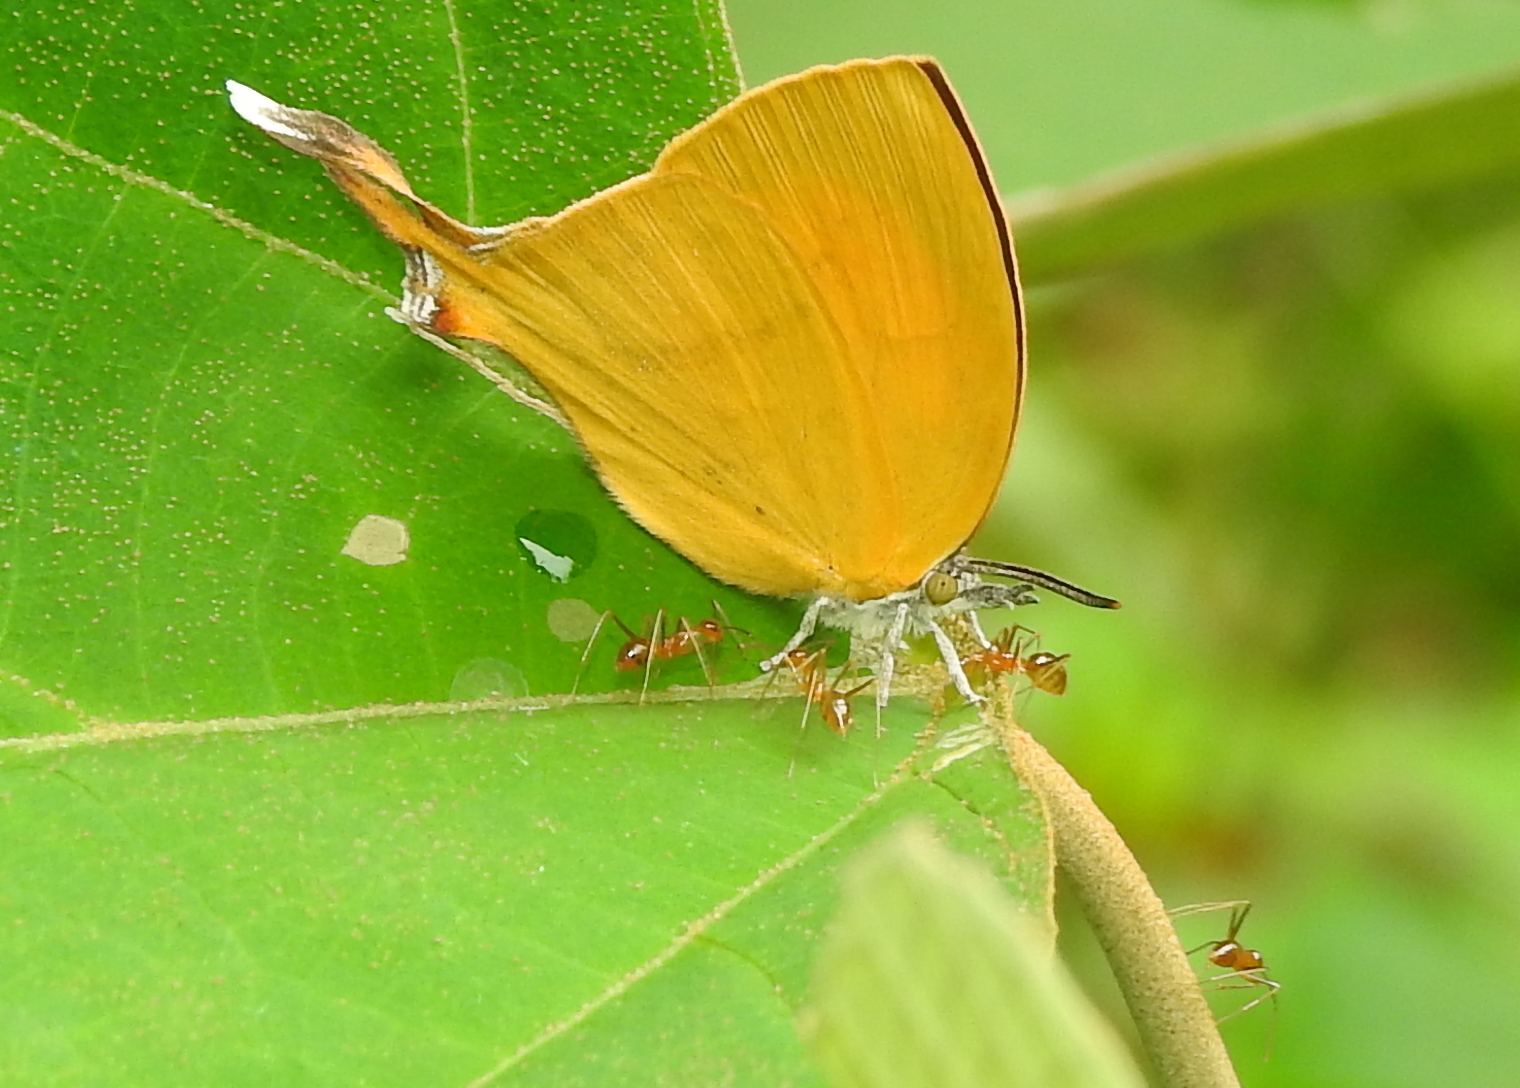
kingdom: Animalia
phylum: Arthropoda
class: Insecta
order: Lepidoptera
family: Lycaenidae
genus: Loxura
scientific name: Loxura atymnus
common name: Common yamfly
